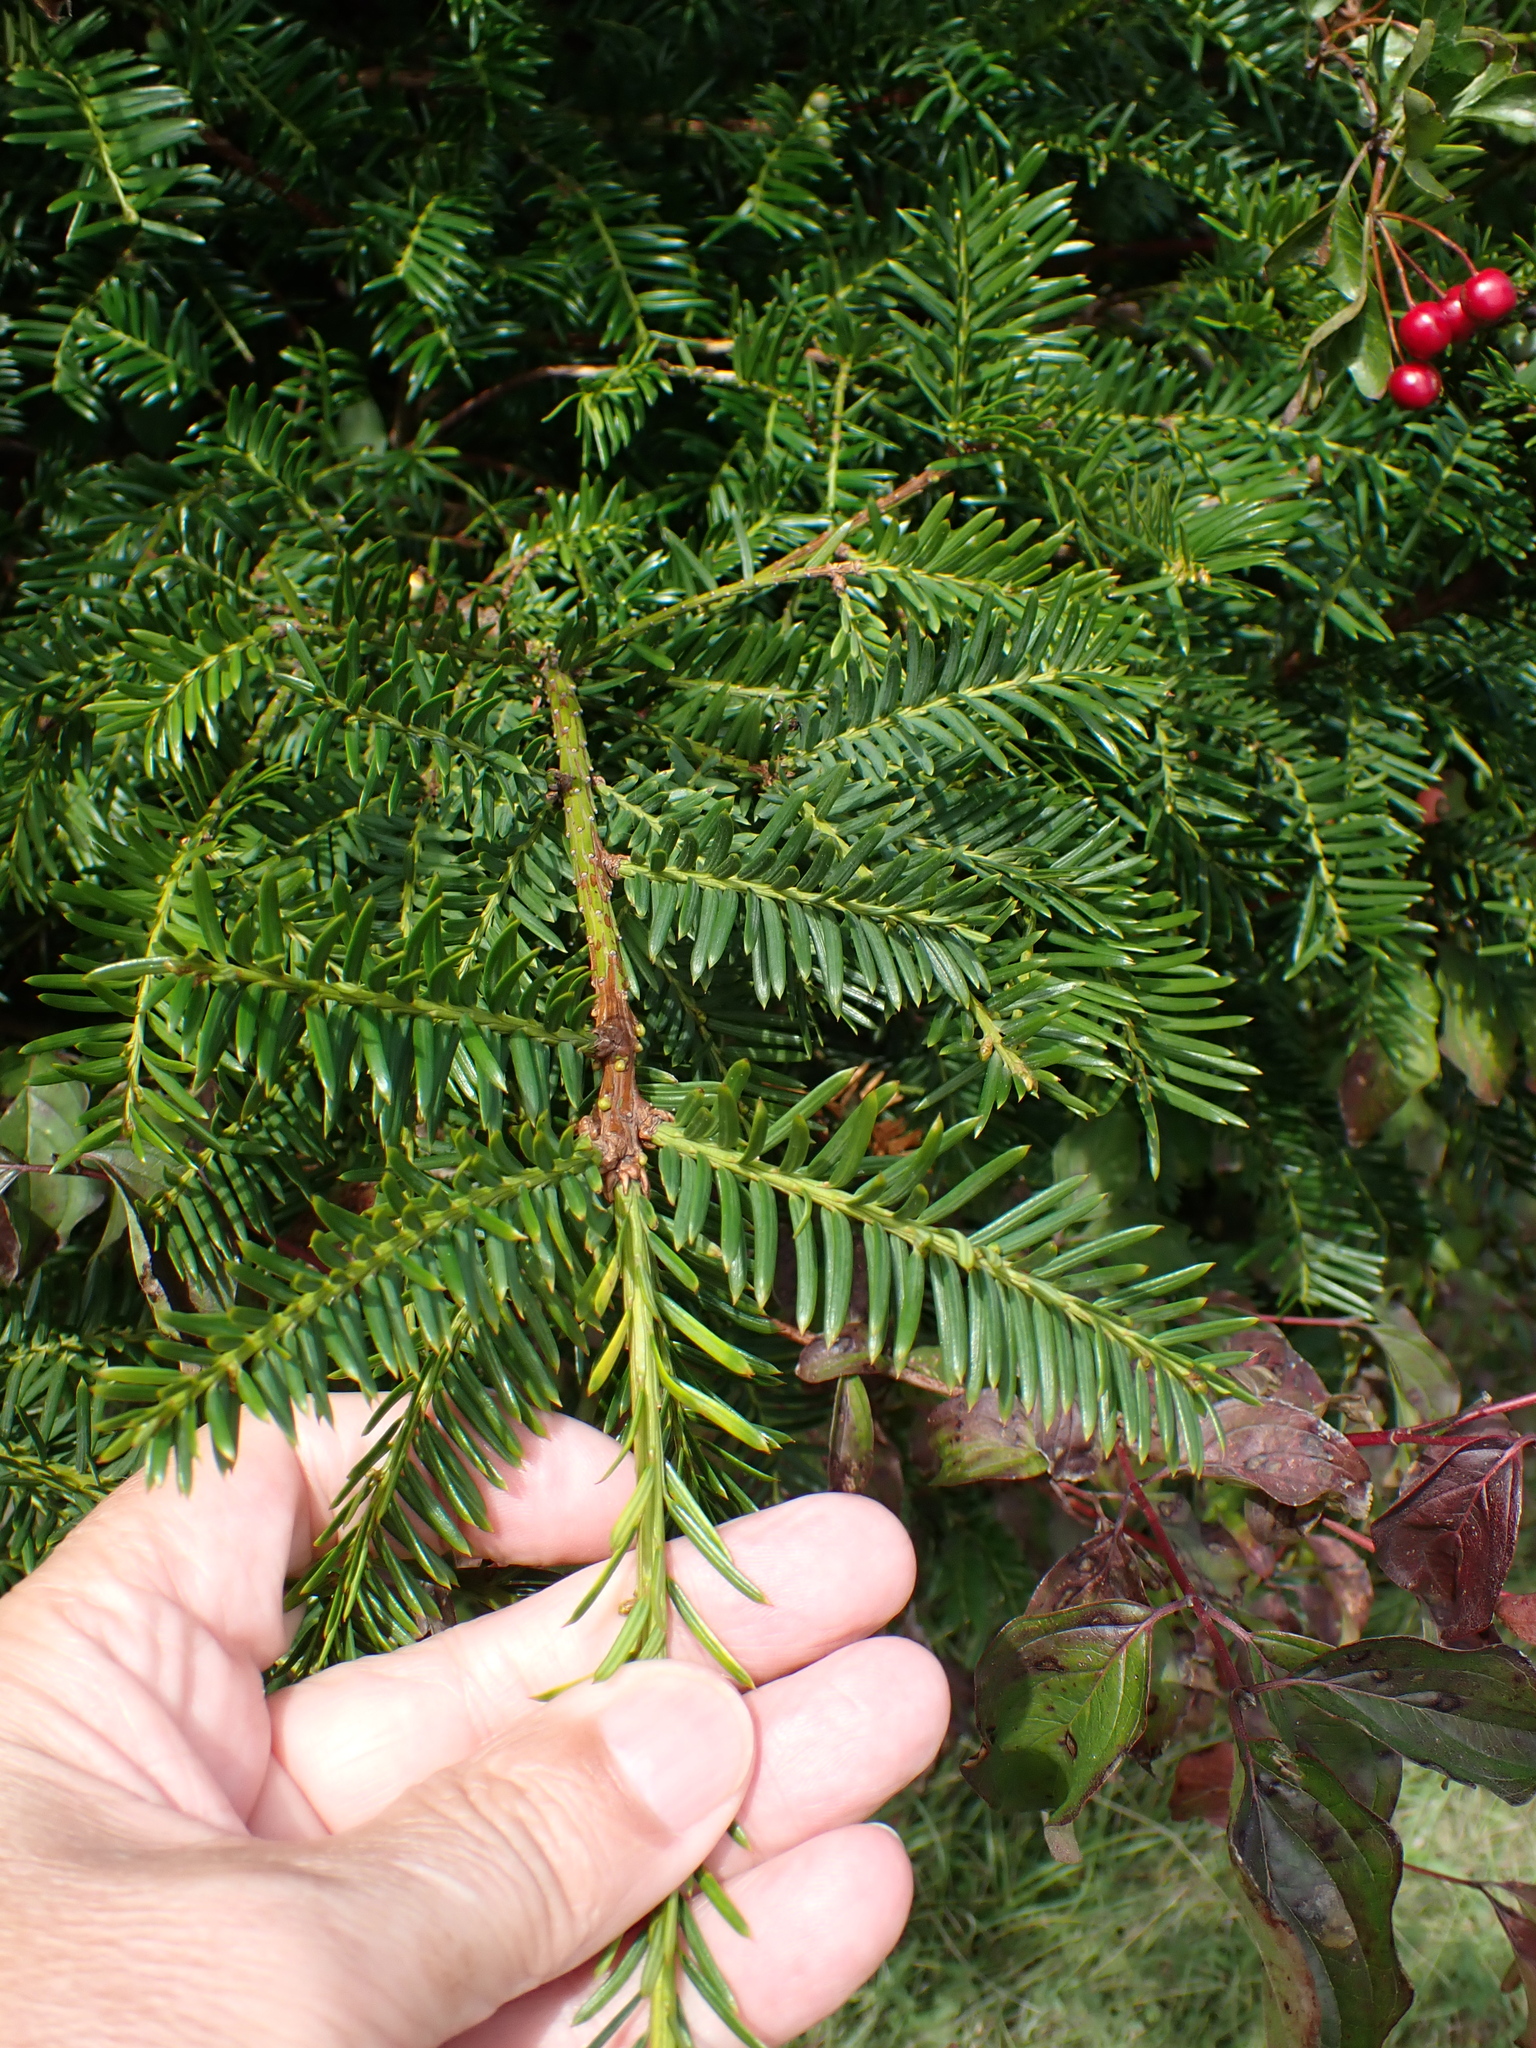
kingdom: Plantae
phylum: Tracheophyta
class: Pinopsida
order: Pinales
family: Taxaceae
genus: Taxus
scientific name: Taxus baccata
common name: Yew
